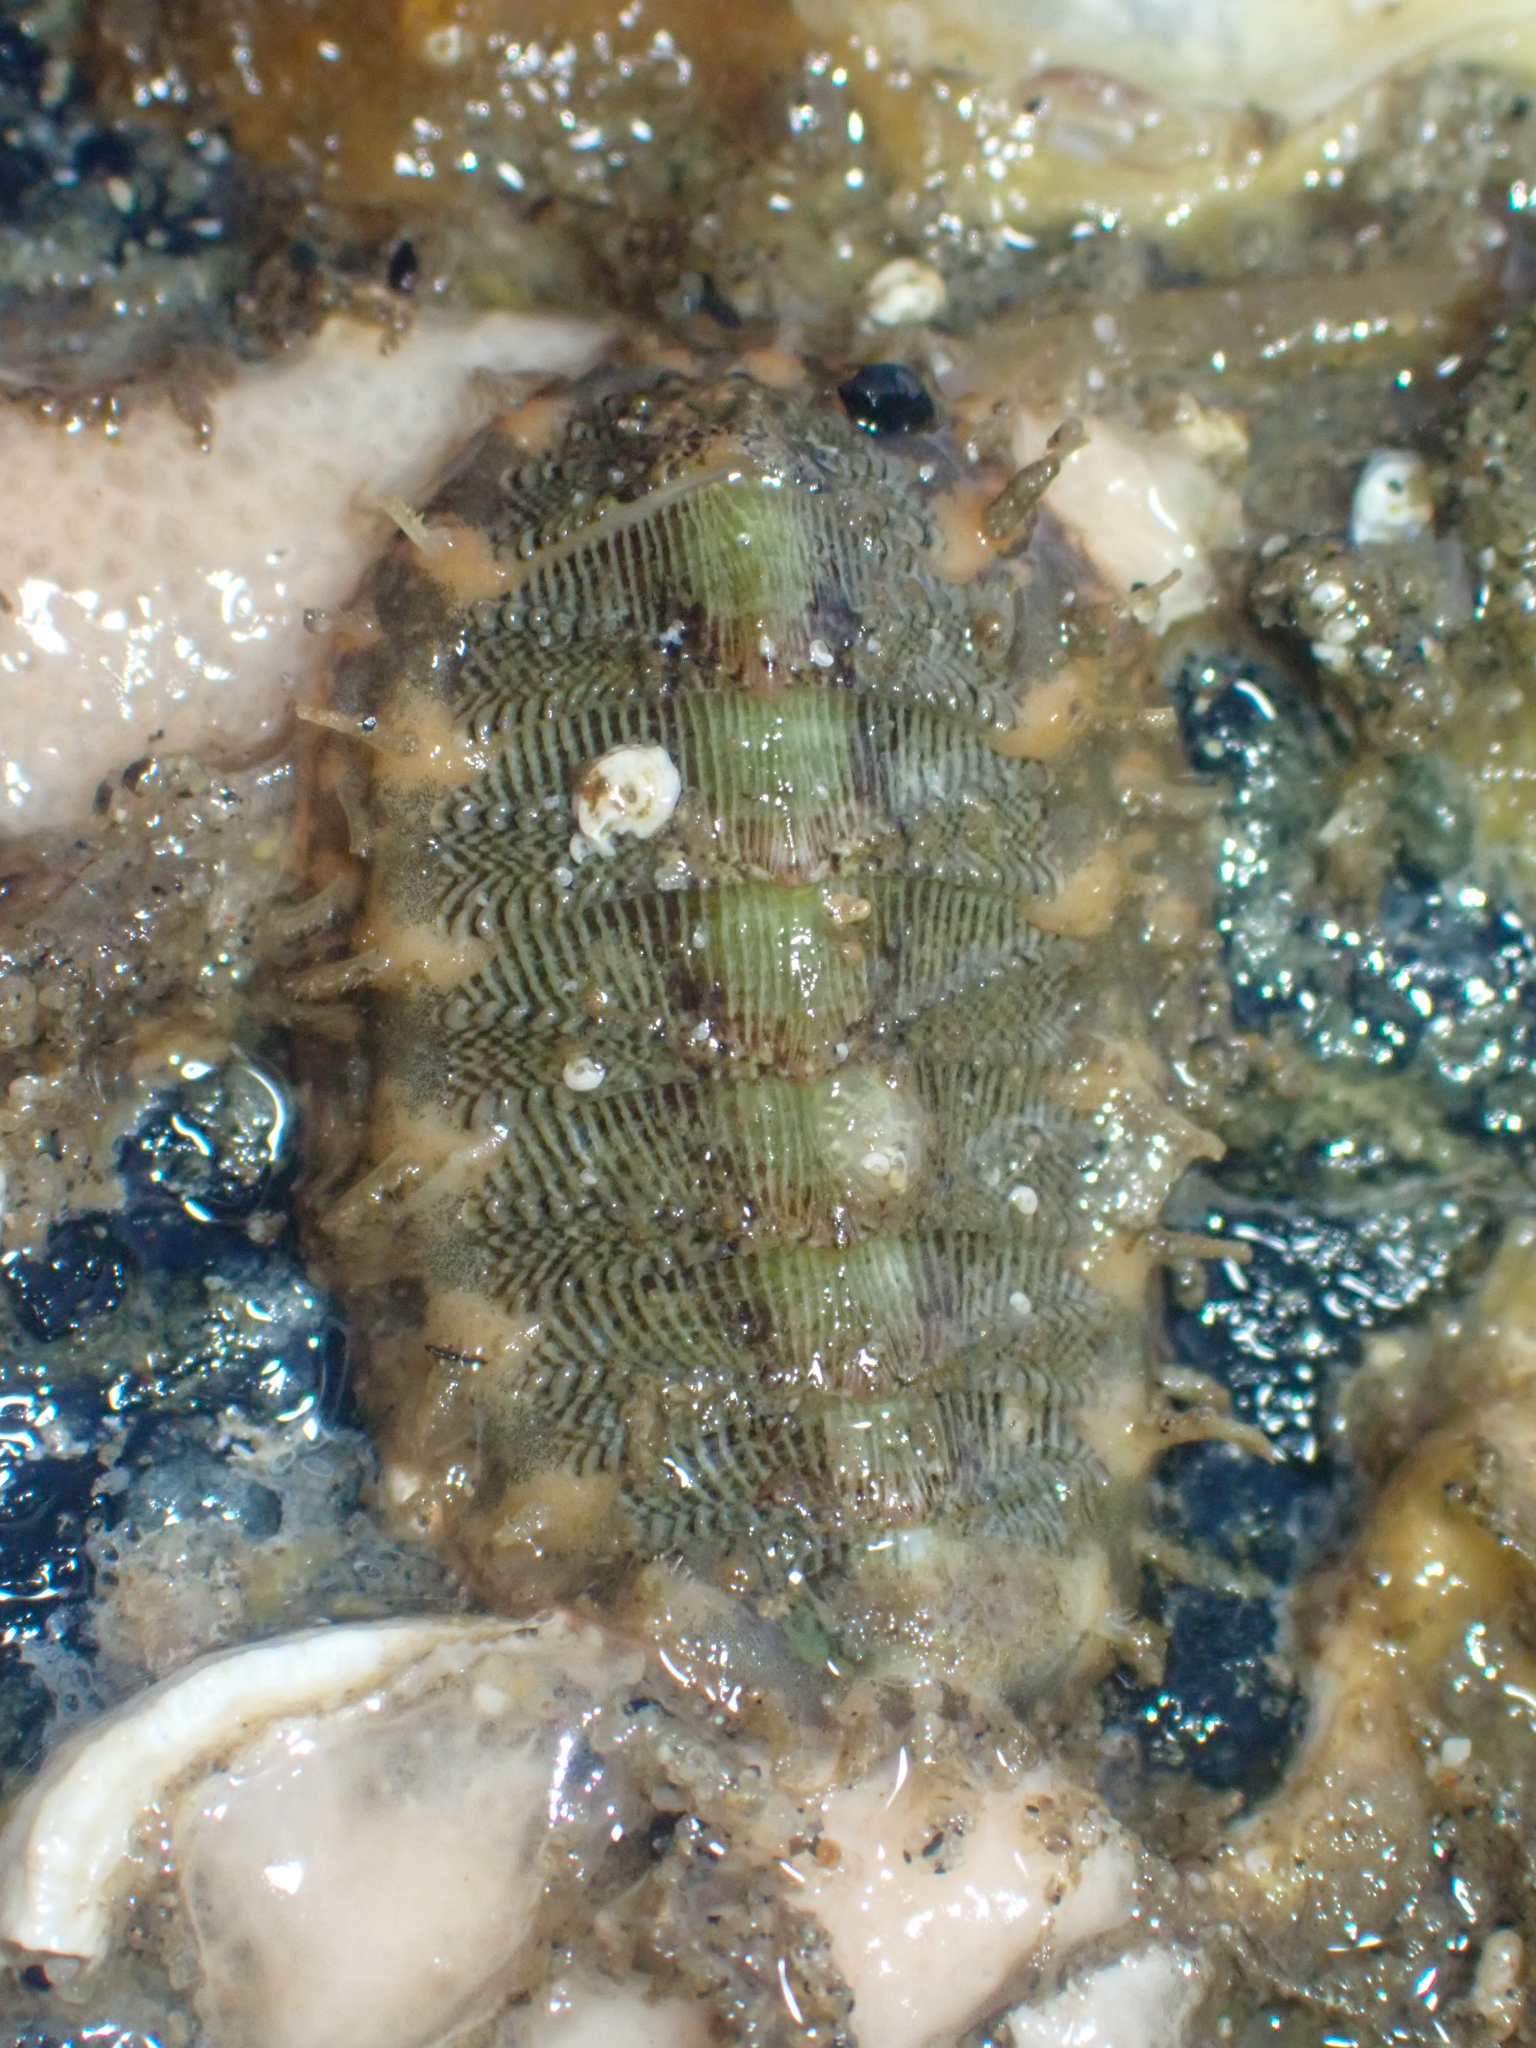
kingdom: Animalia
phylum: Mollusca
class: Polyplacophora
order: Chitonida
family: Mopaliidae
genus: Mopalia
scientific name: Mopalia porifera
